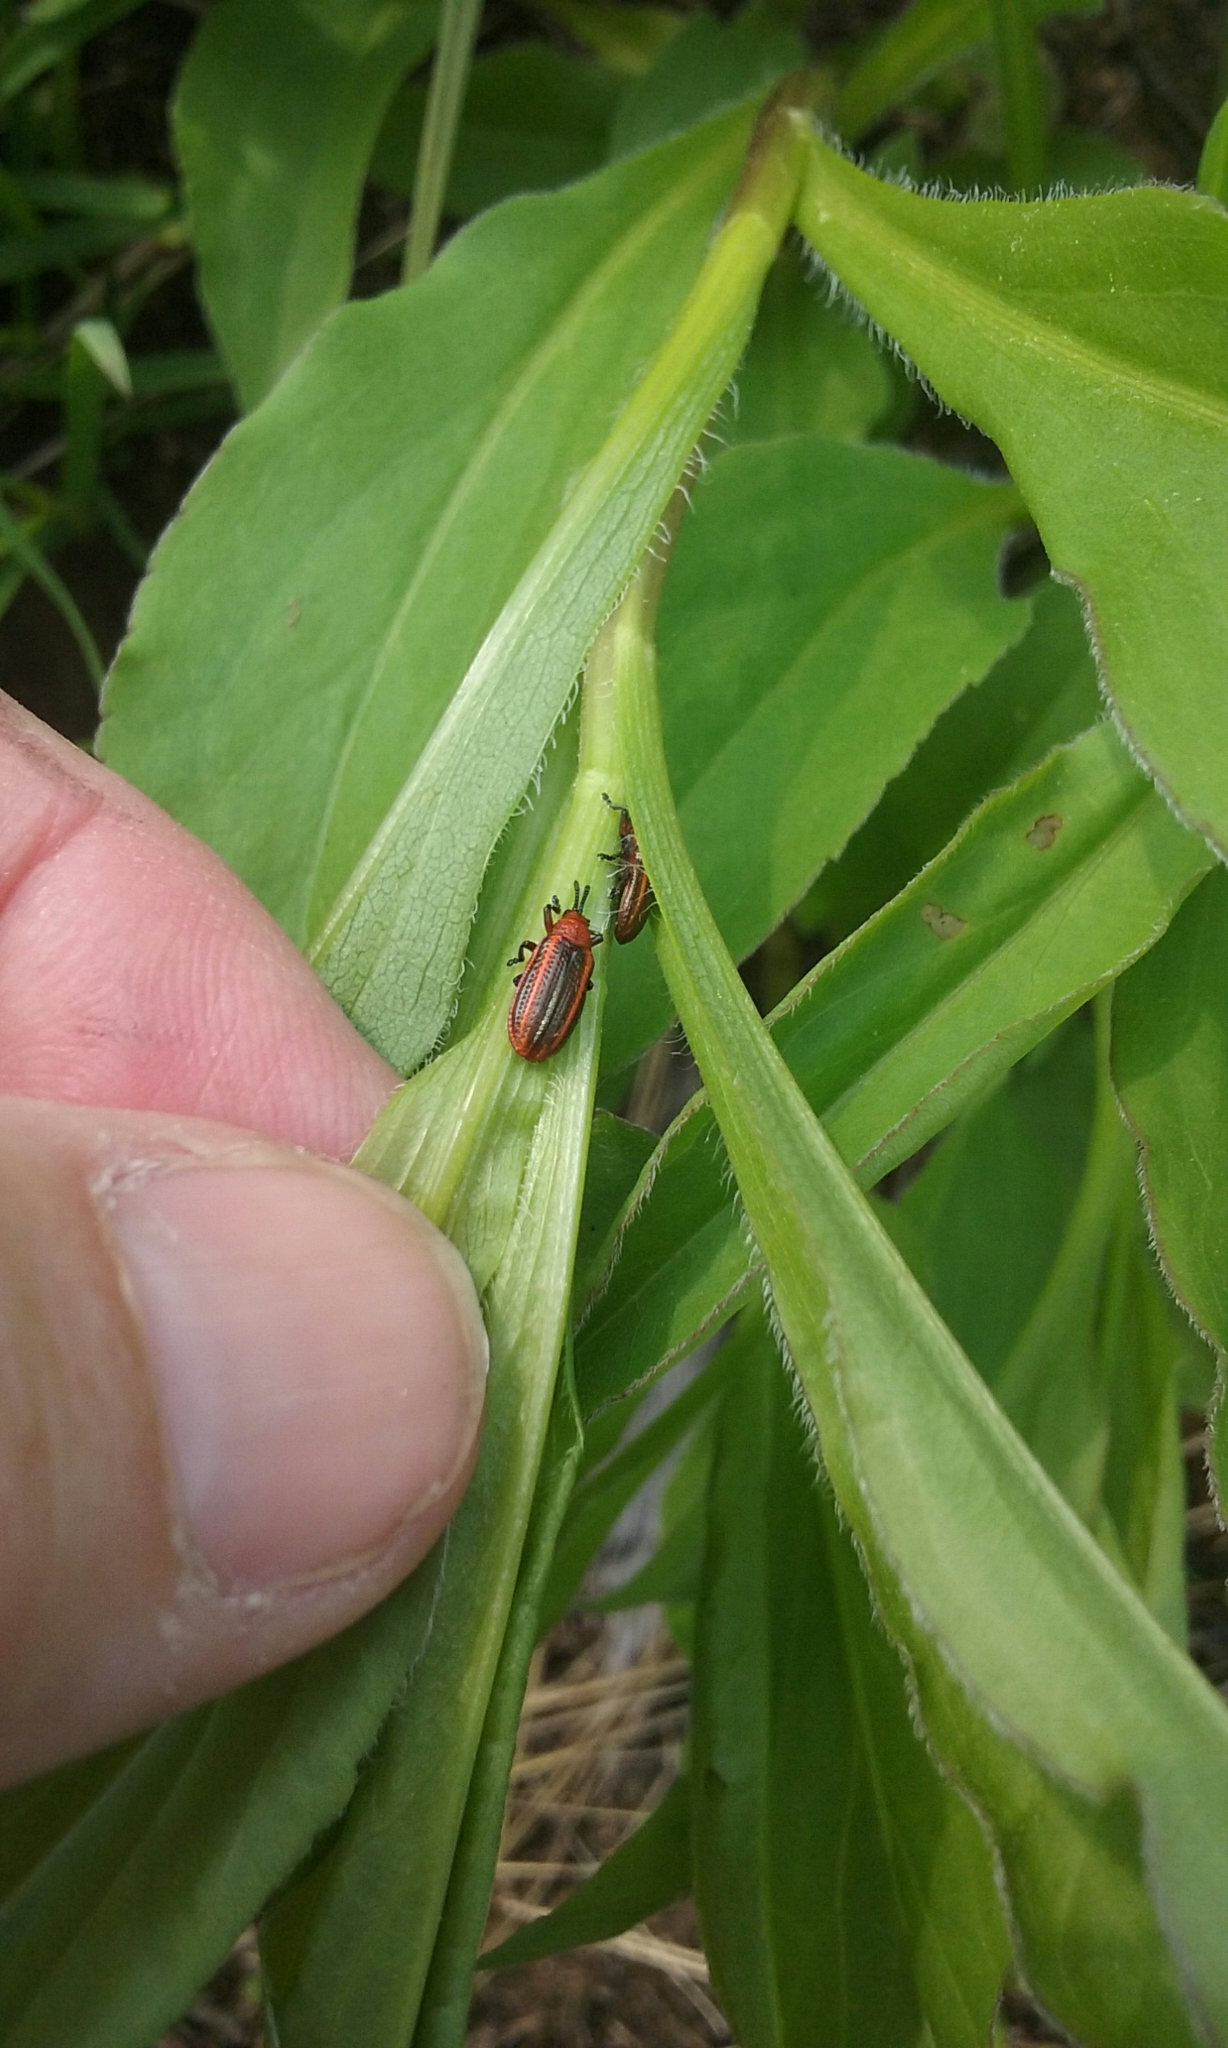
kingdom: Animalia
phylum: Arthropoda
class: Insecta
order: Coleoptera
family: Chrysomelidae
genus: Microrhopala
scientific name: Microrhopala vittata
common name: Goldenrod leaf miner beetle
